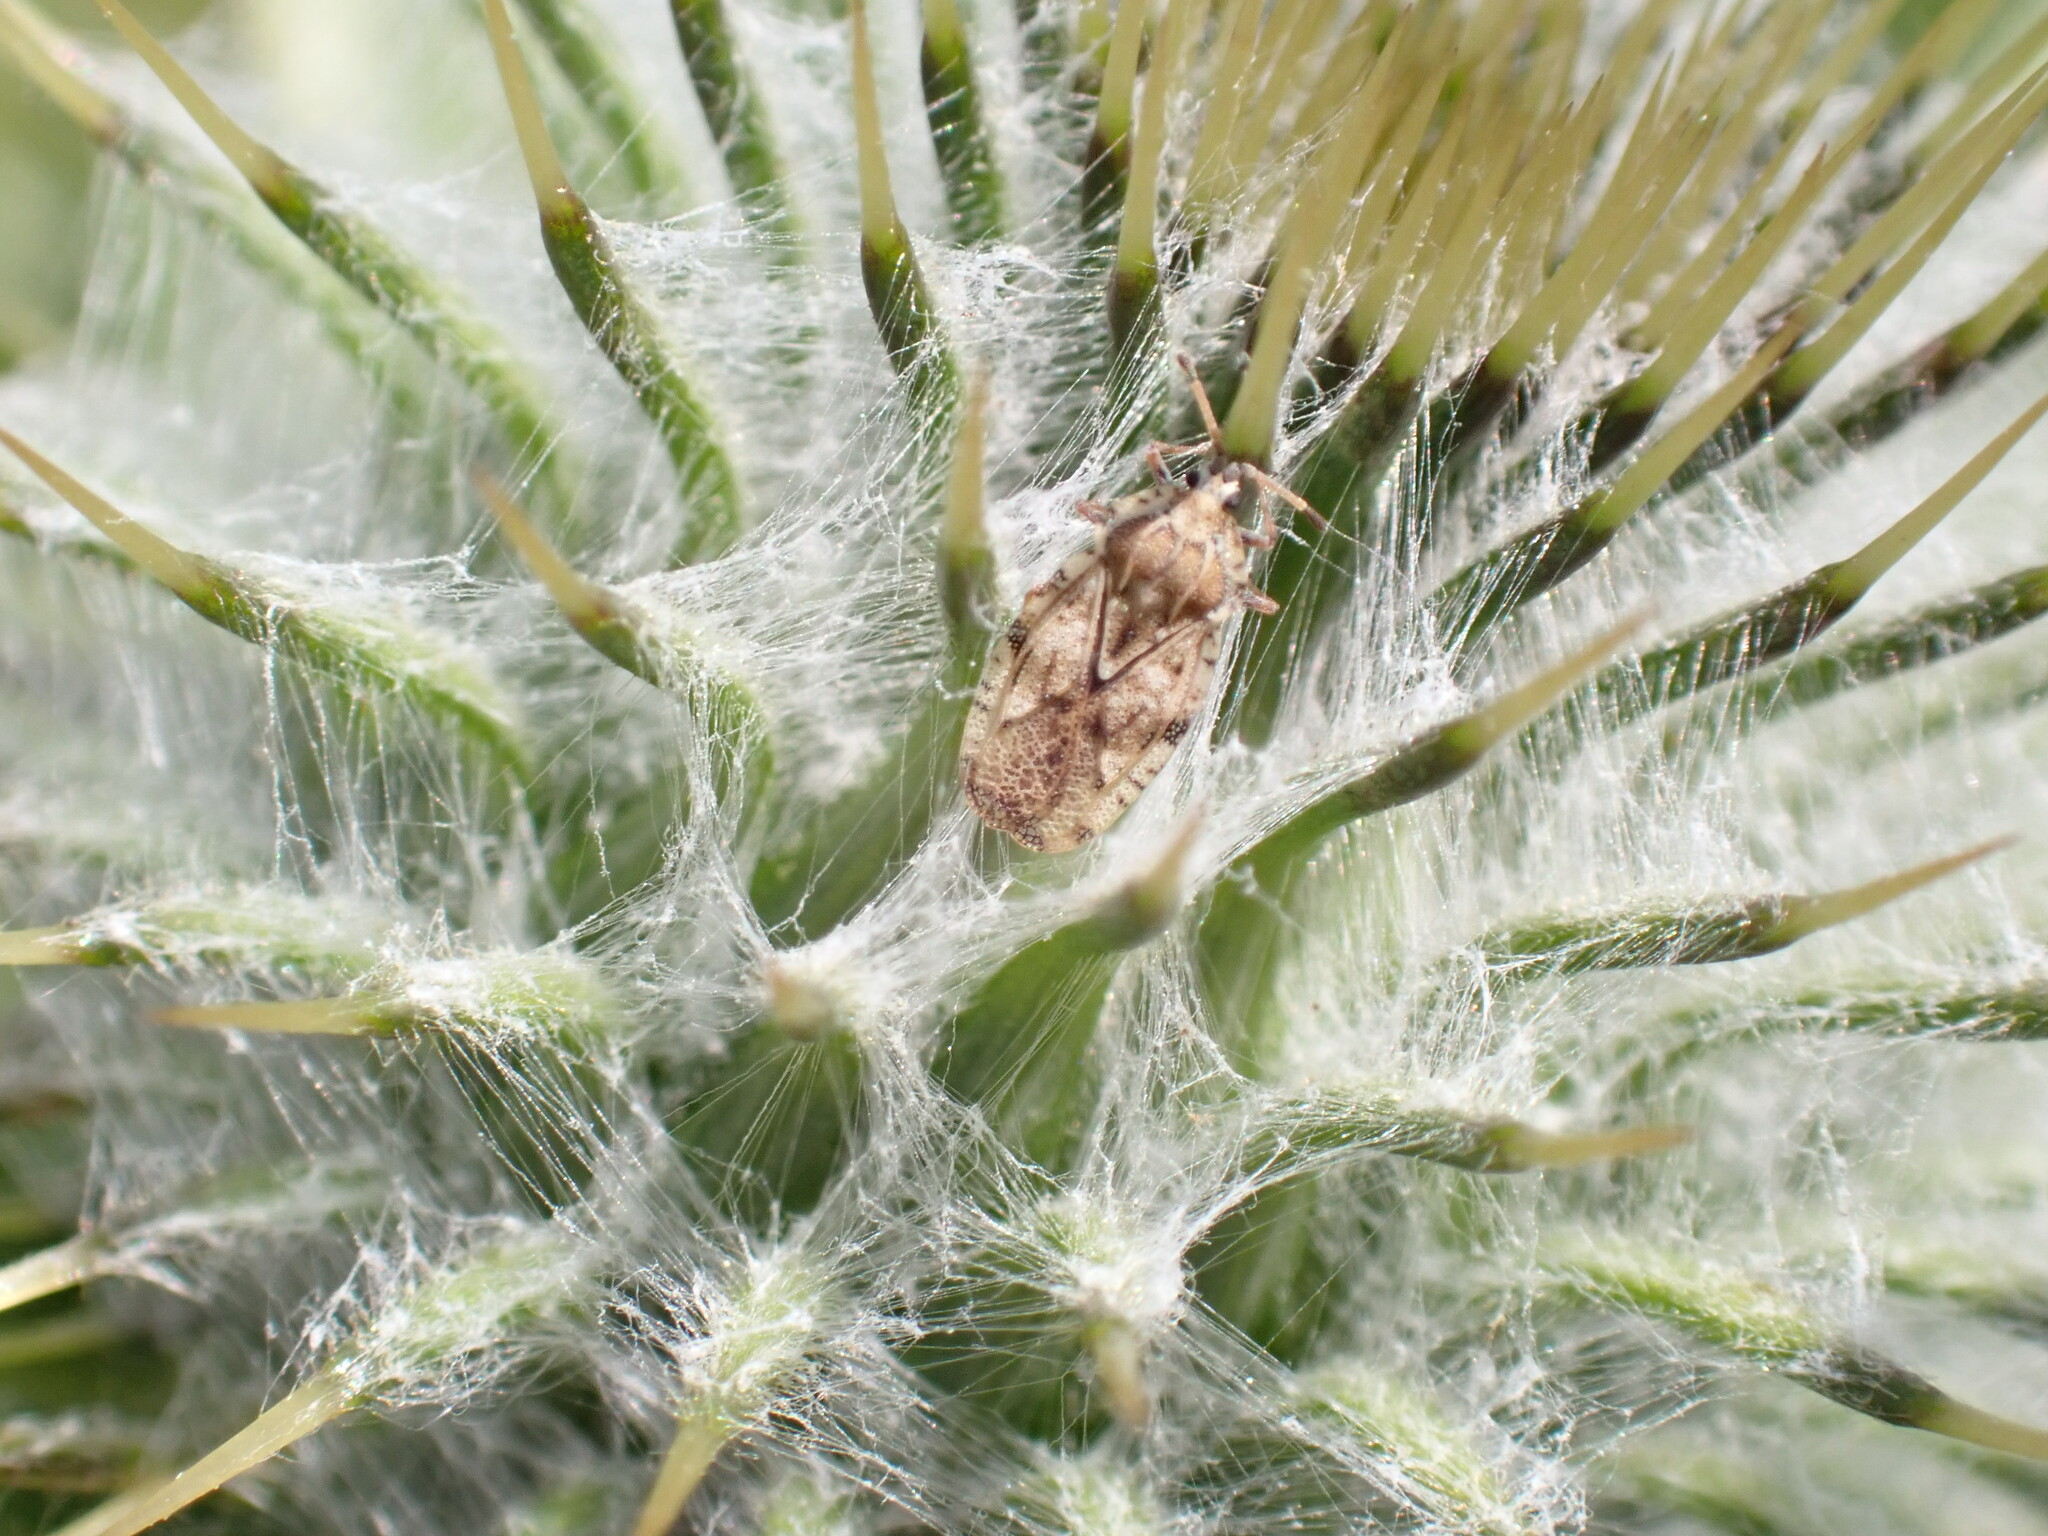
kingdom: Animalia
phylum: Arthropoda
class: Insecta
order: Hemiptera
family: Tingidae
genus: Tingis
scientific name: Tingis cardui
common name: Spear thistle lacebug
